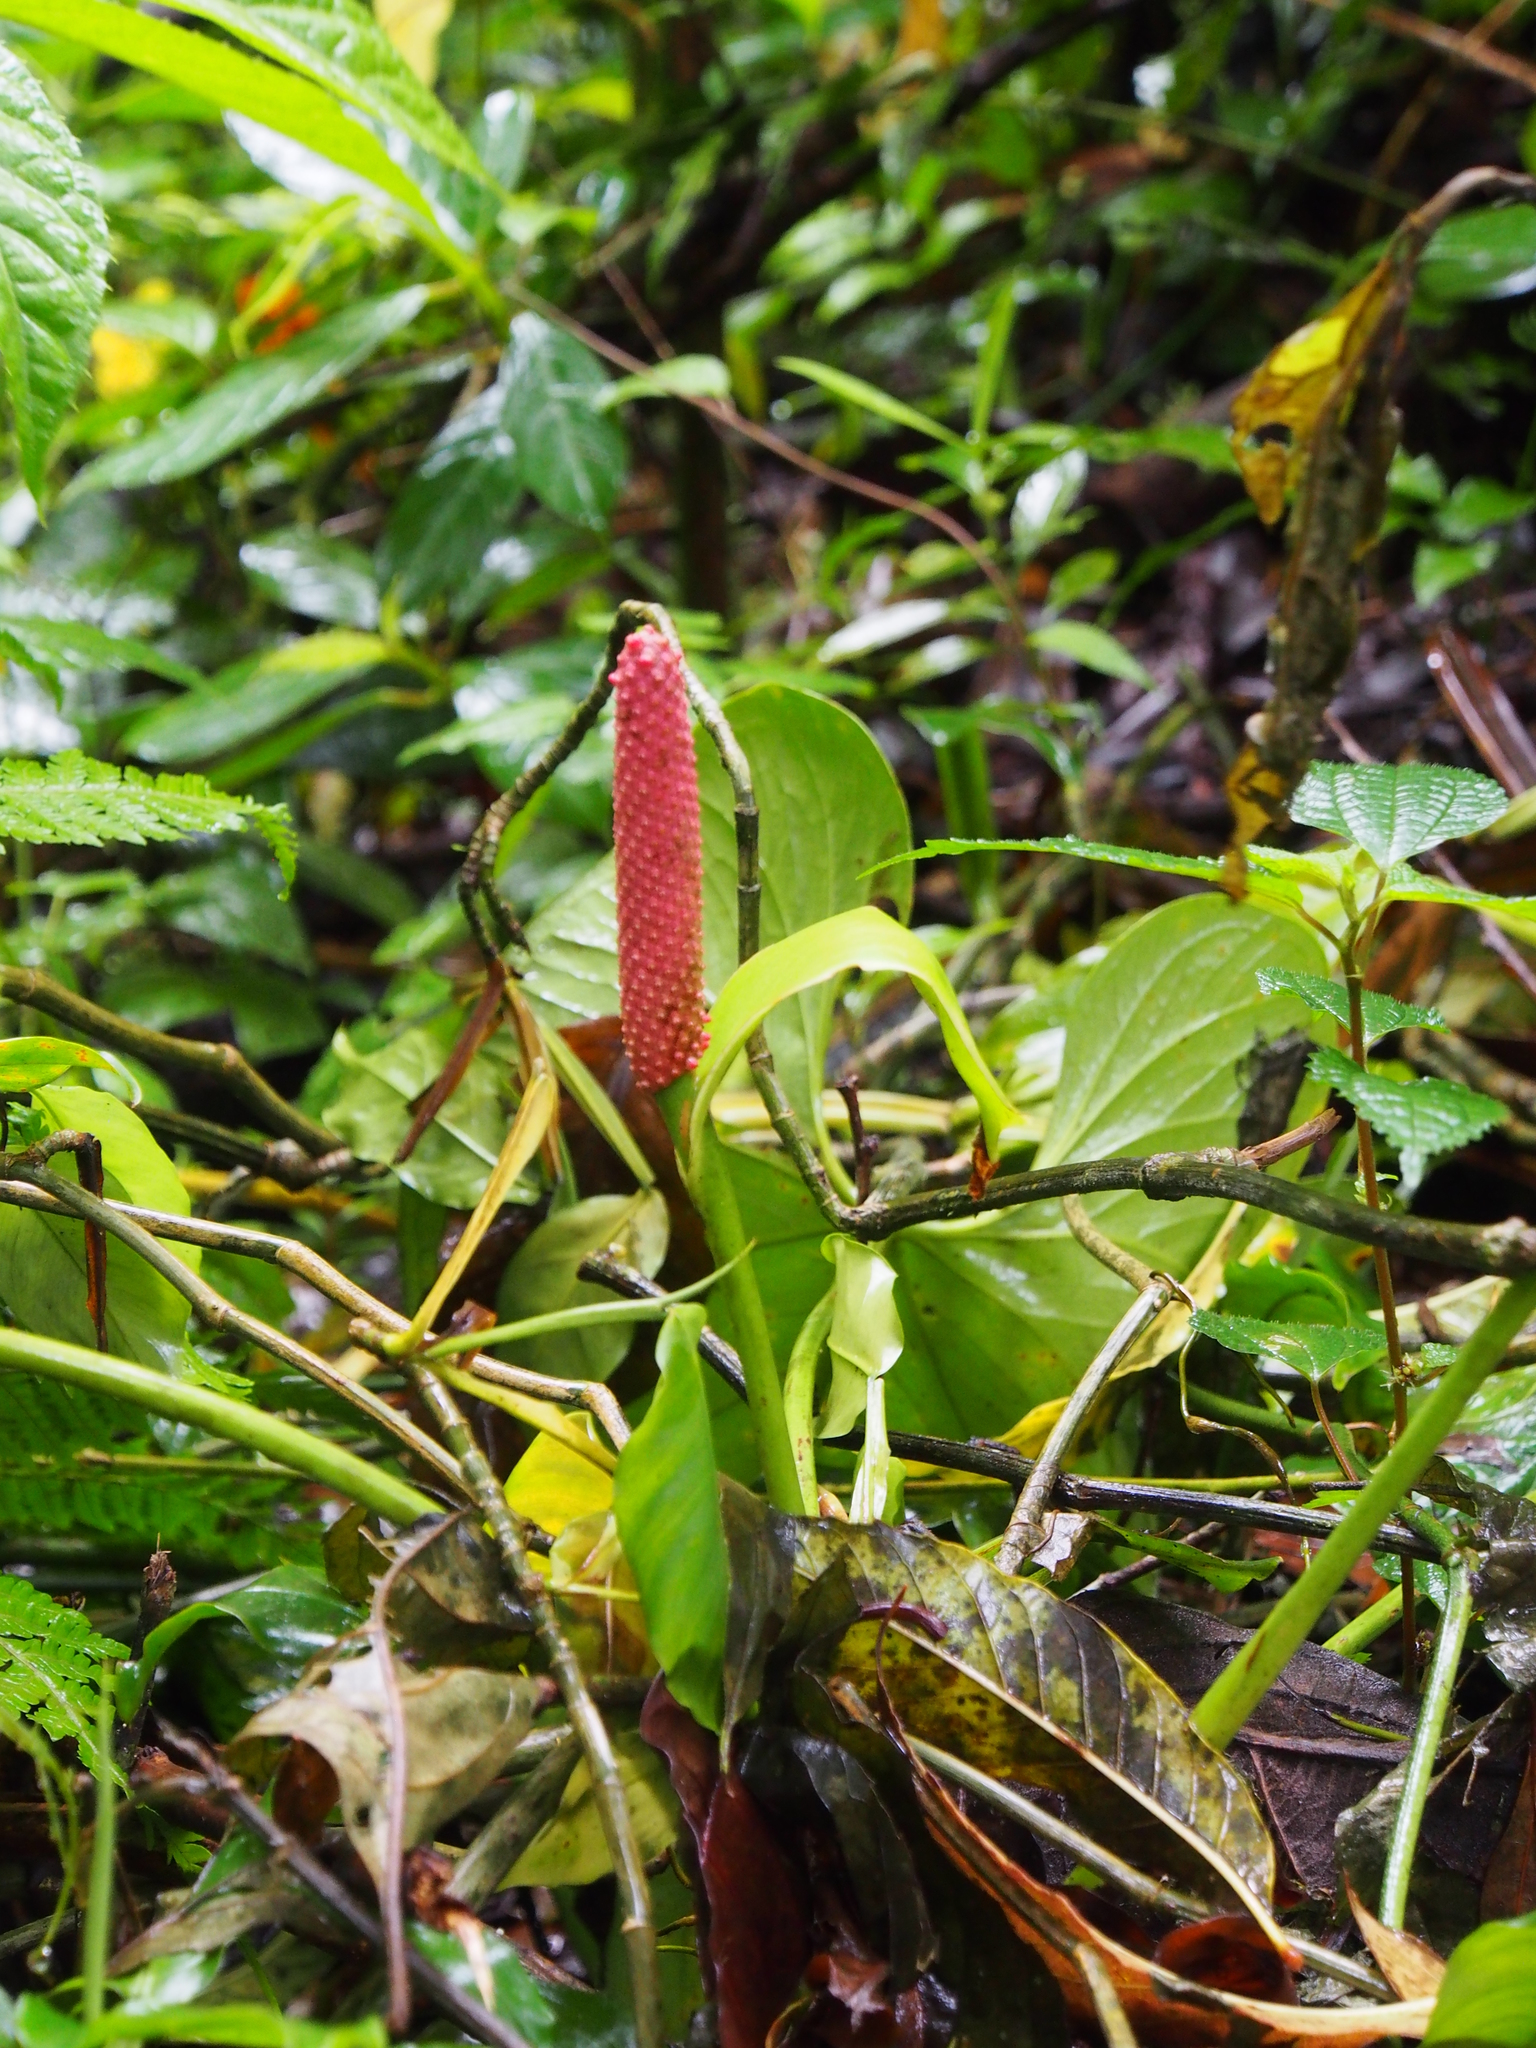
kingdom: Plantae
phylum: Tracheophyta
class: Liliopsida
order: Alismatales
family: Araceae
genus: Anthurium
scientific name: Anthurium obtusilobum
